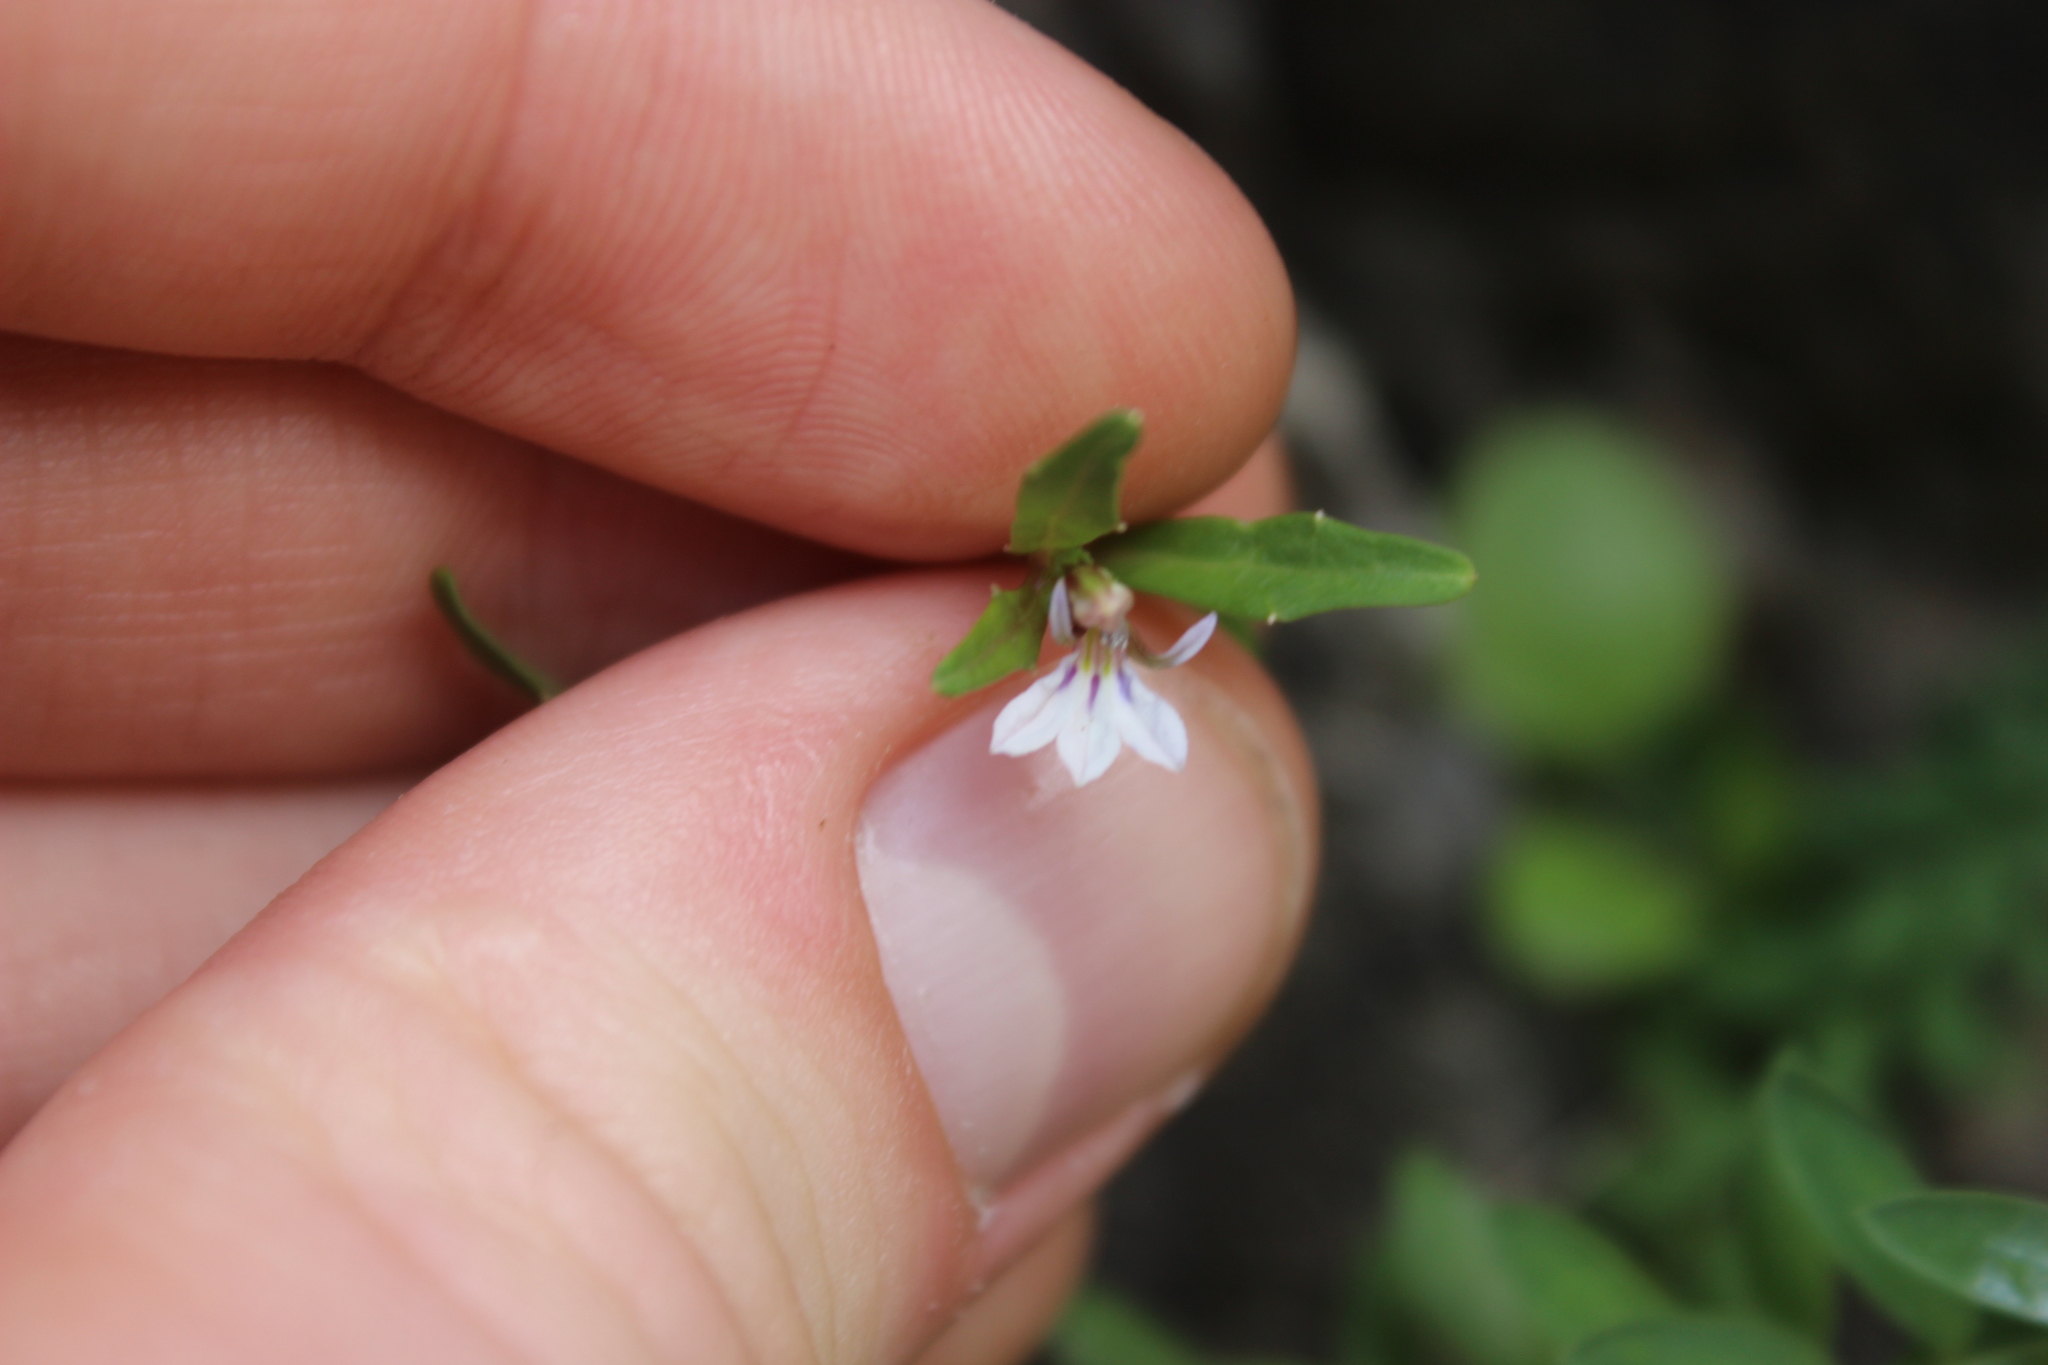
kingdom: Plantae
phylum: Tracheophyta
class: Magnoliopsida
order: Asterales
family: Campanulaceae
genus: Lobelia
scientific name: Lobelia anceps
